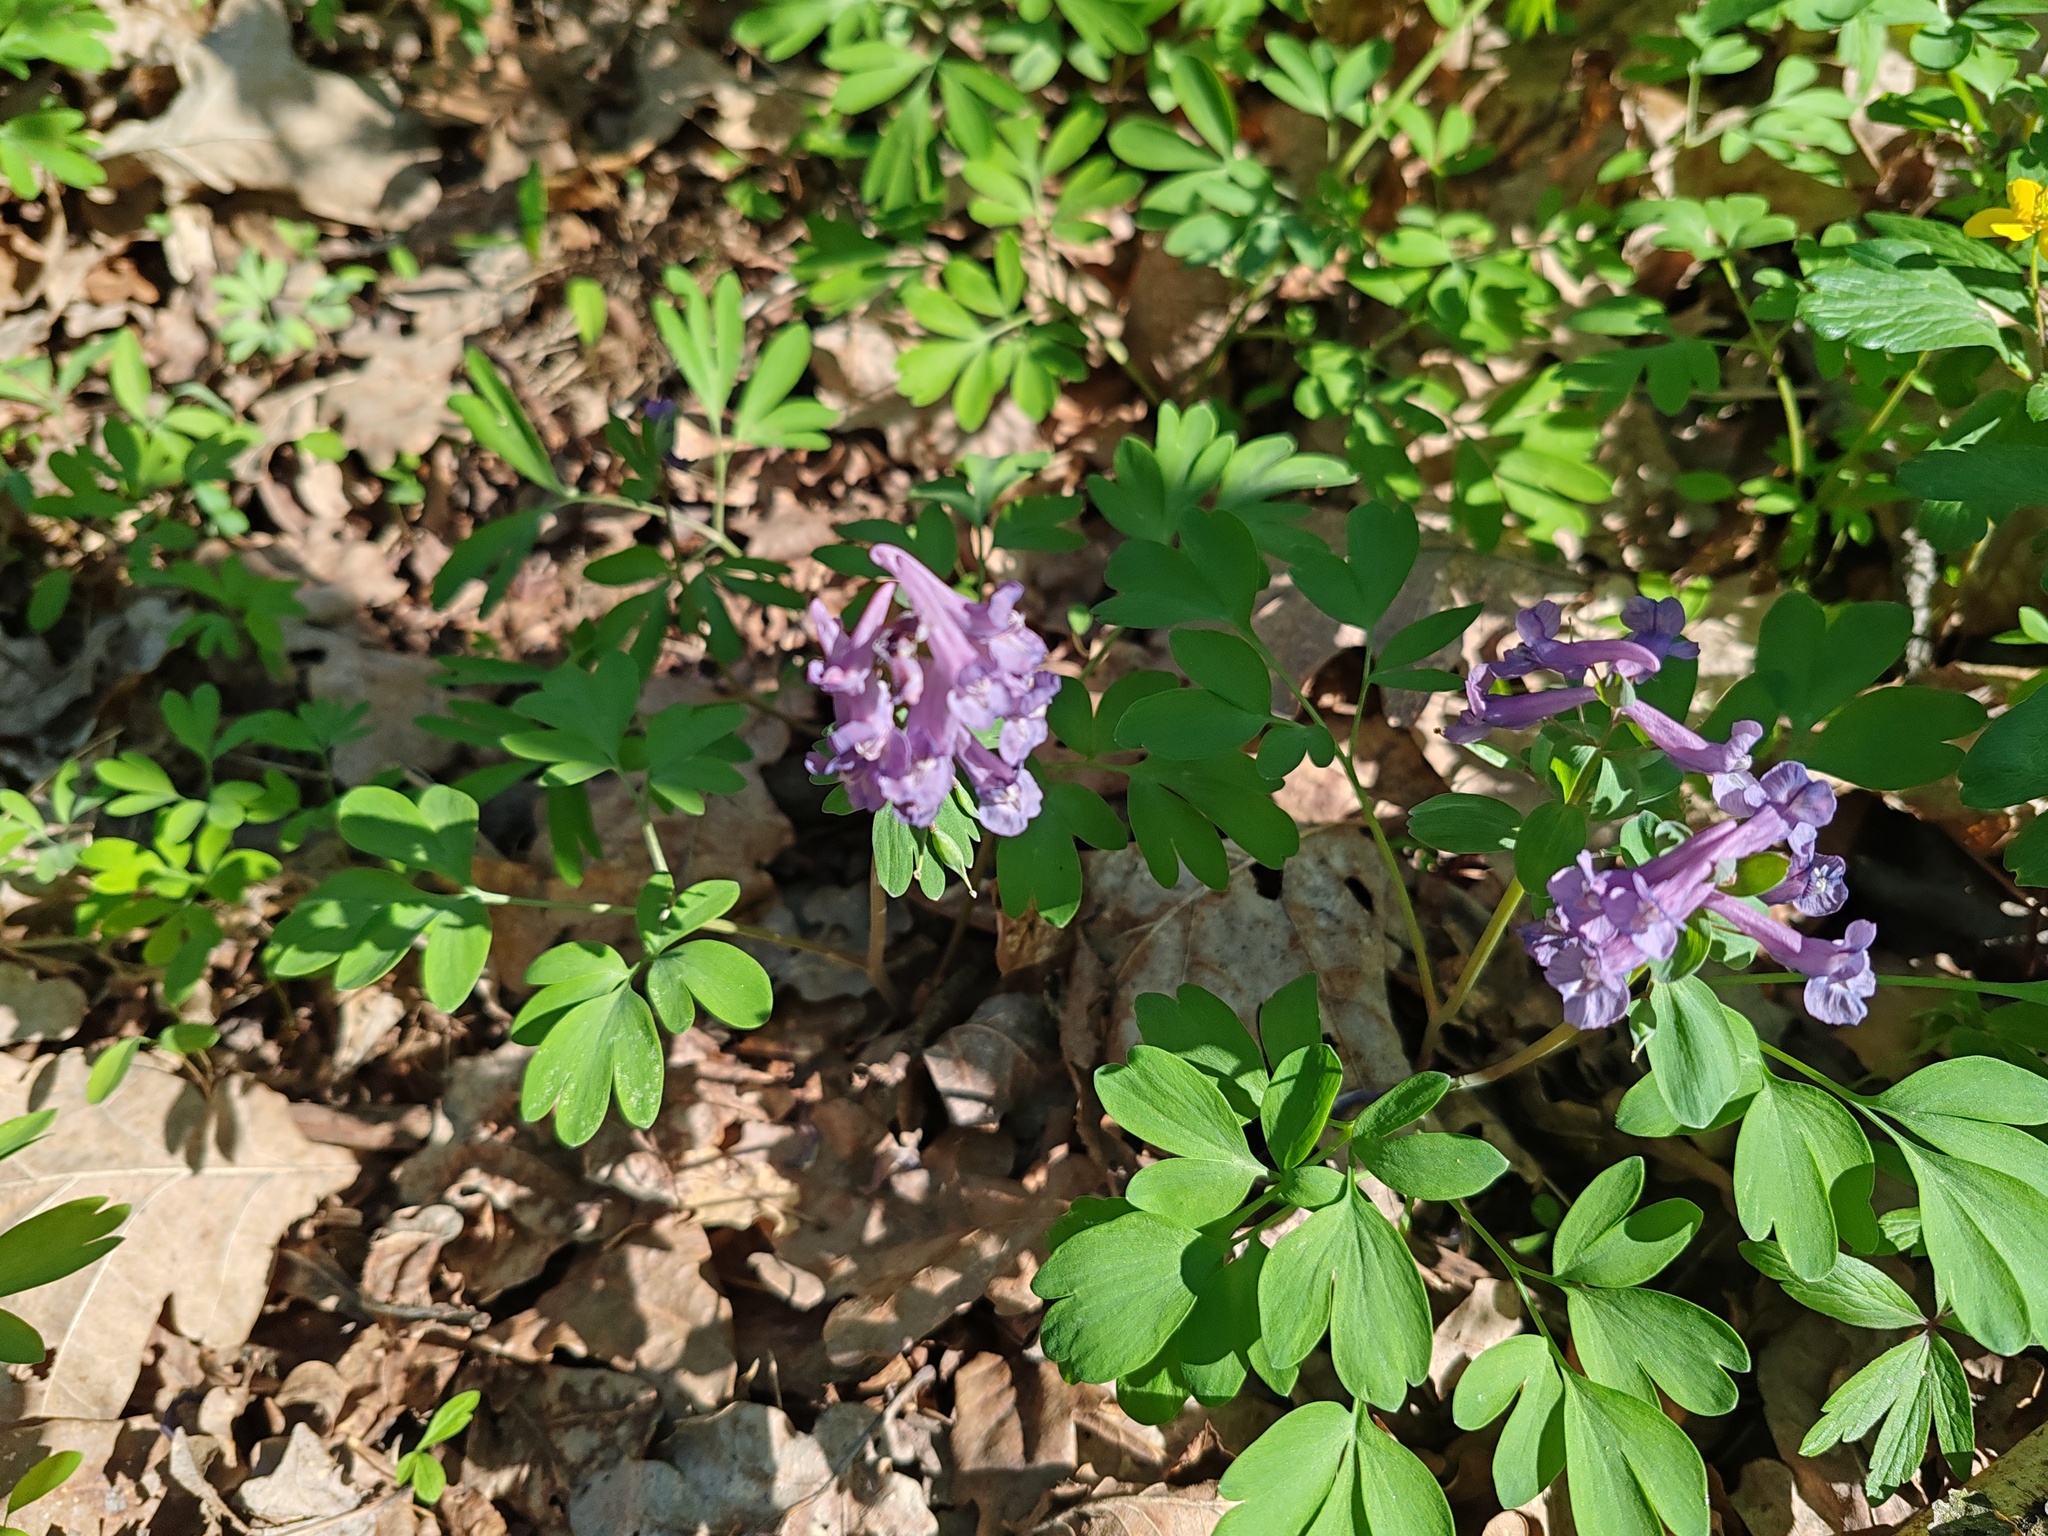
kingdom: Plantae
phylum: Tracheophyta
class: Magnoliopsida
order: Ranunculales
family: Papaveraceae
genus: Corydalis
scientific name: Corydalis solida
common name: Bird-in-a-bush
